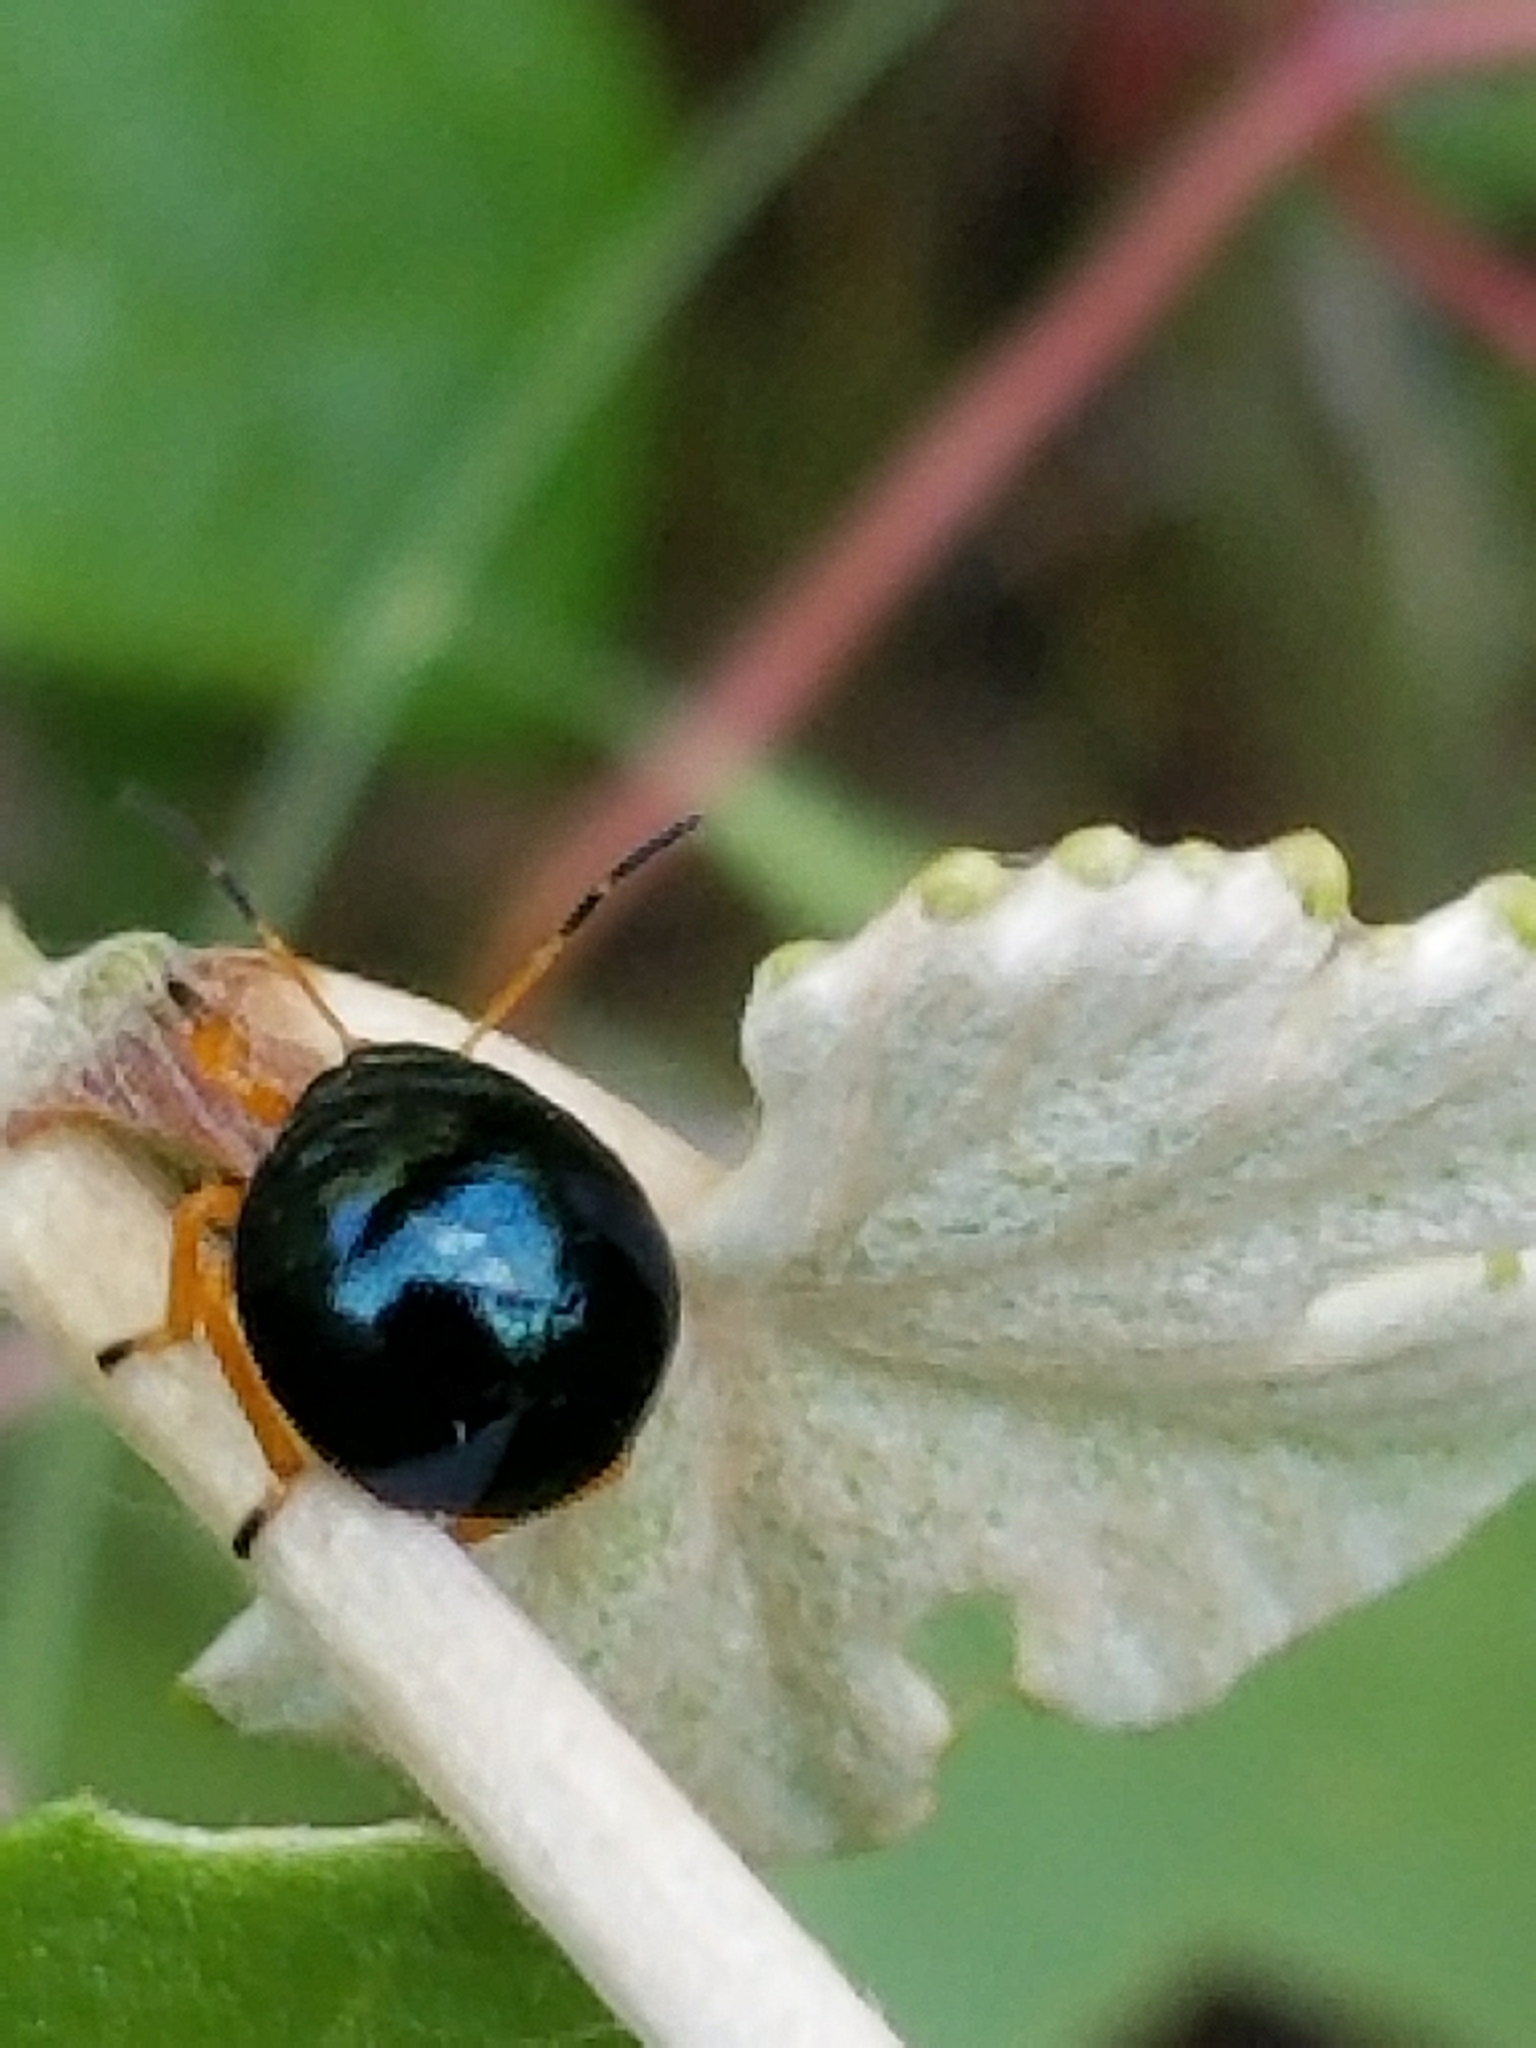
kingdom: Animalia
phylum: Arthropoda
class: Insecta
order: Hemiptera
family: Pentatomidae
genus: Stiretrus
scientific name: Stiretrus anchorago
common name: Anchor stink bug
